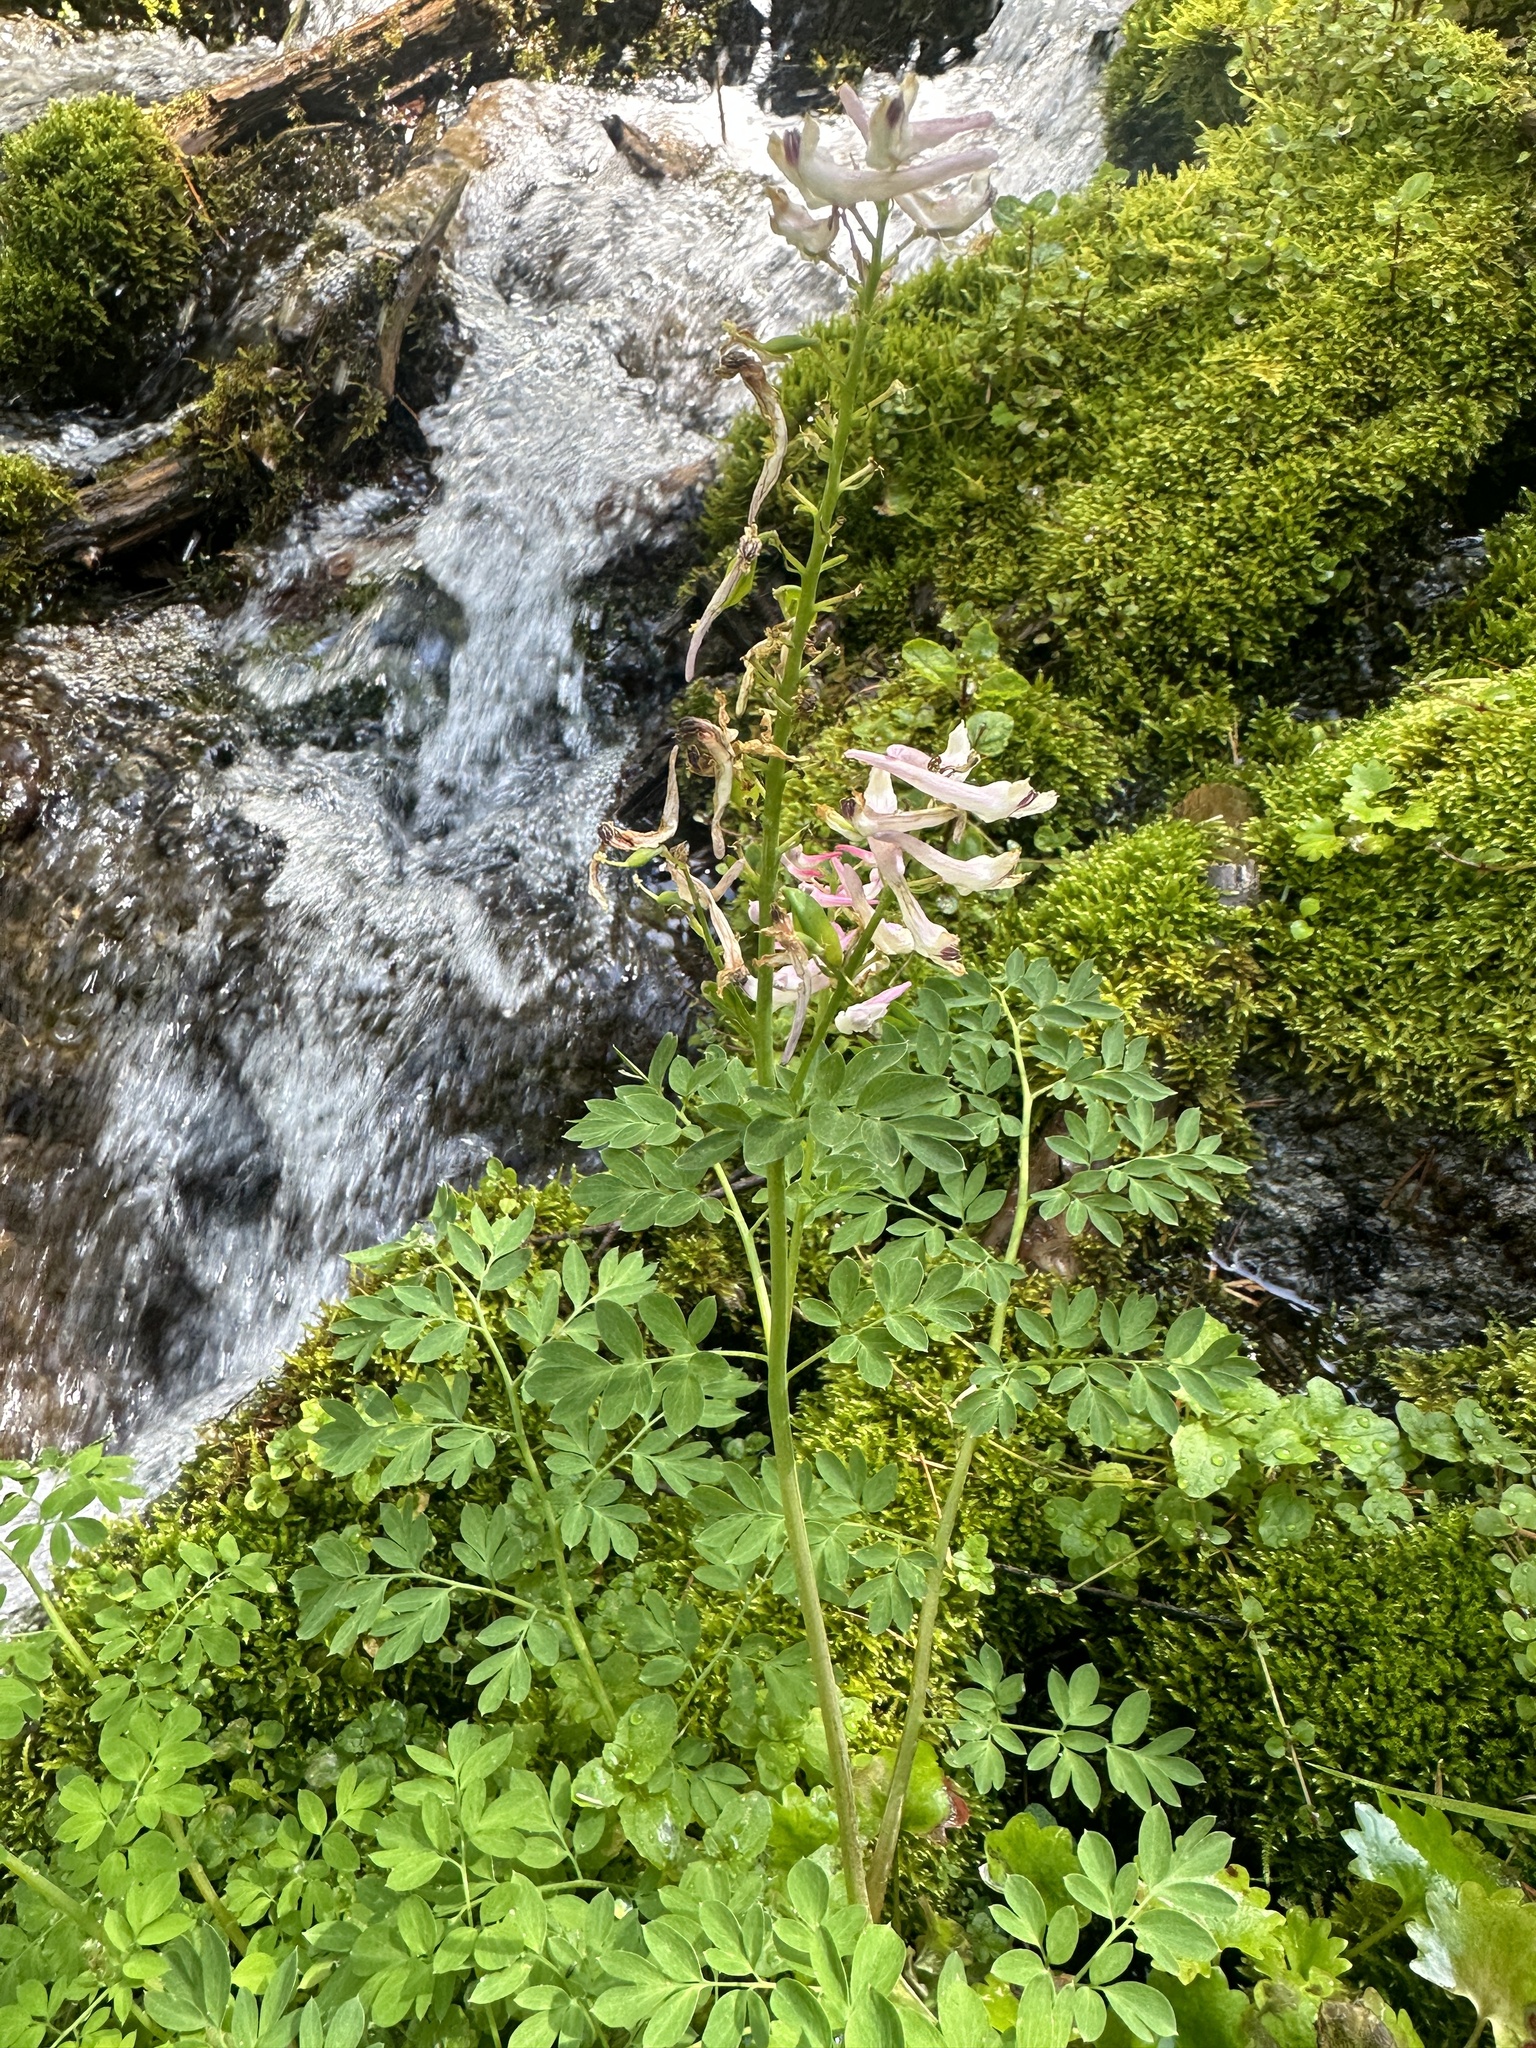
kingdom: Plantae
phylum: Tracheophyta
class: Magnoliopsida
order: Ranunculales
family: Papaveraceae
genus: Corydalis
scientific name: Corydalis caseana
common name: Fitweed
